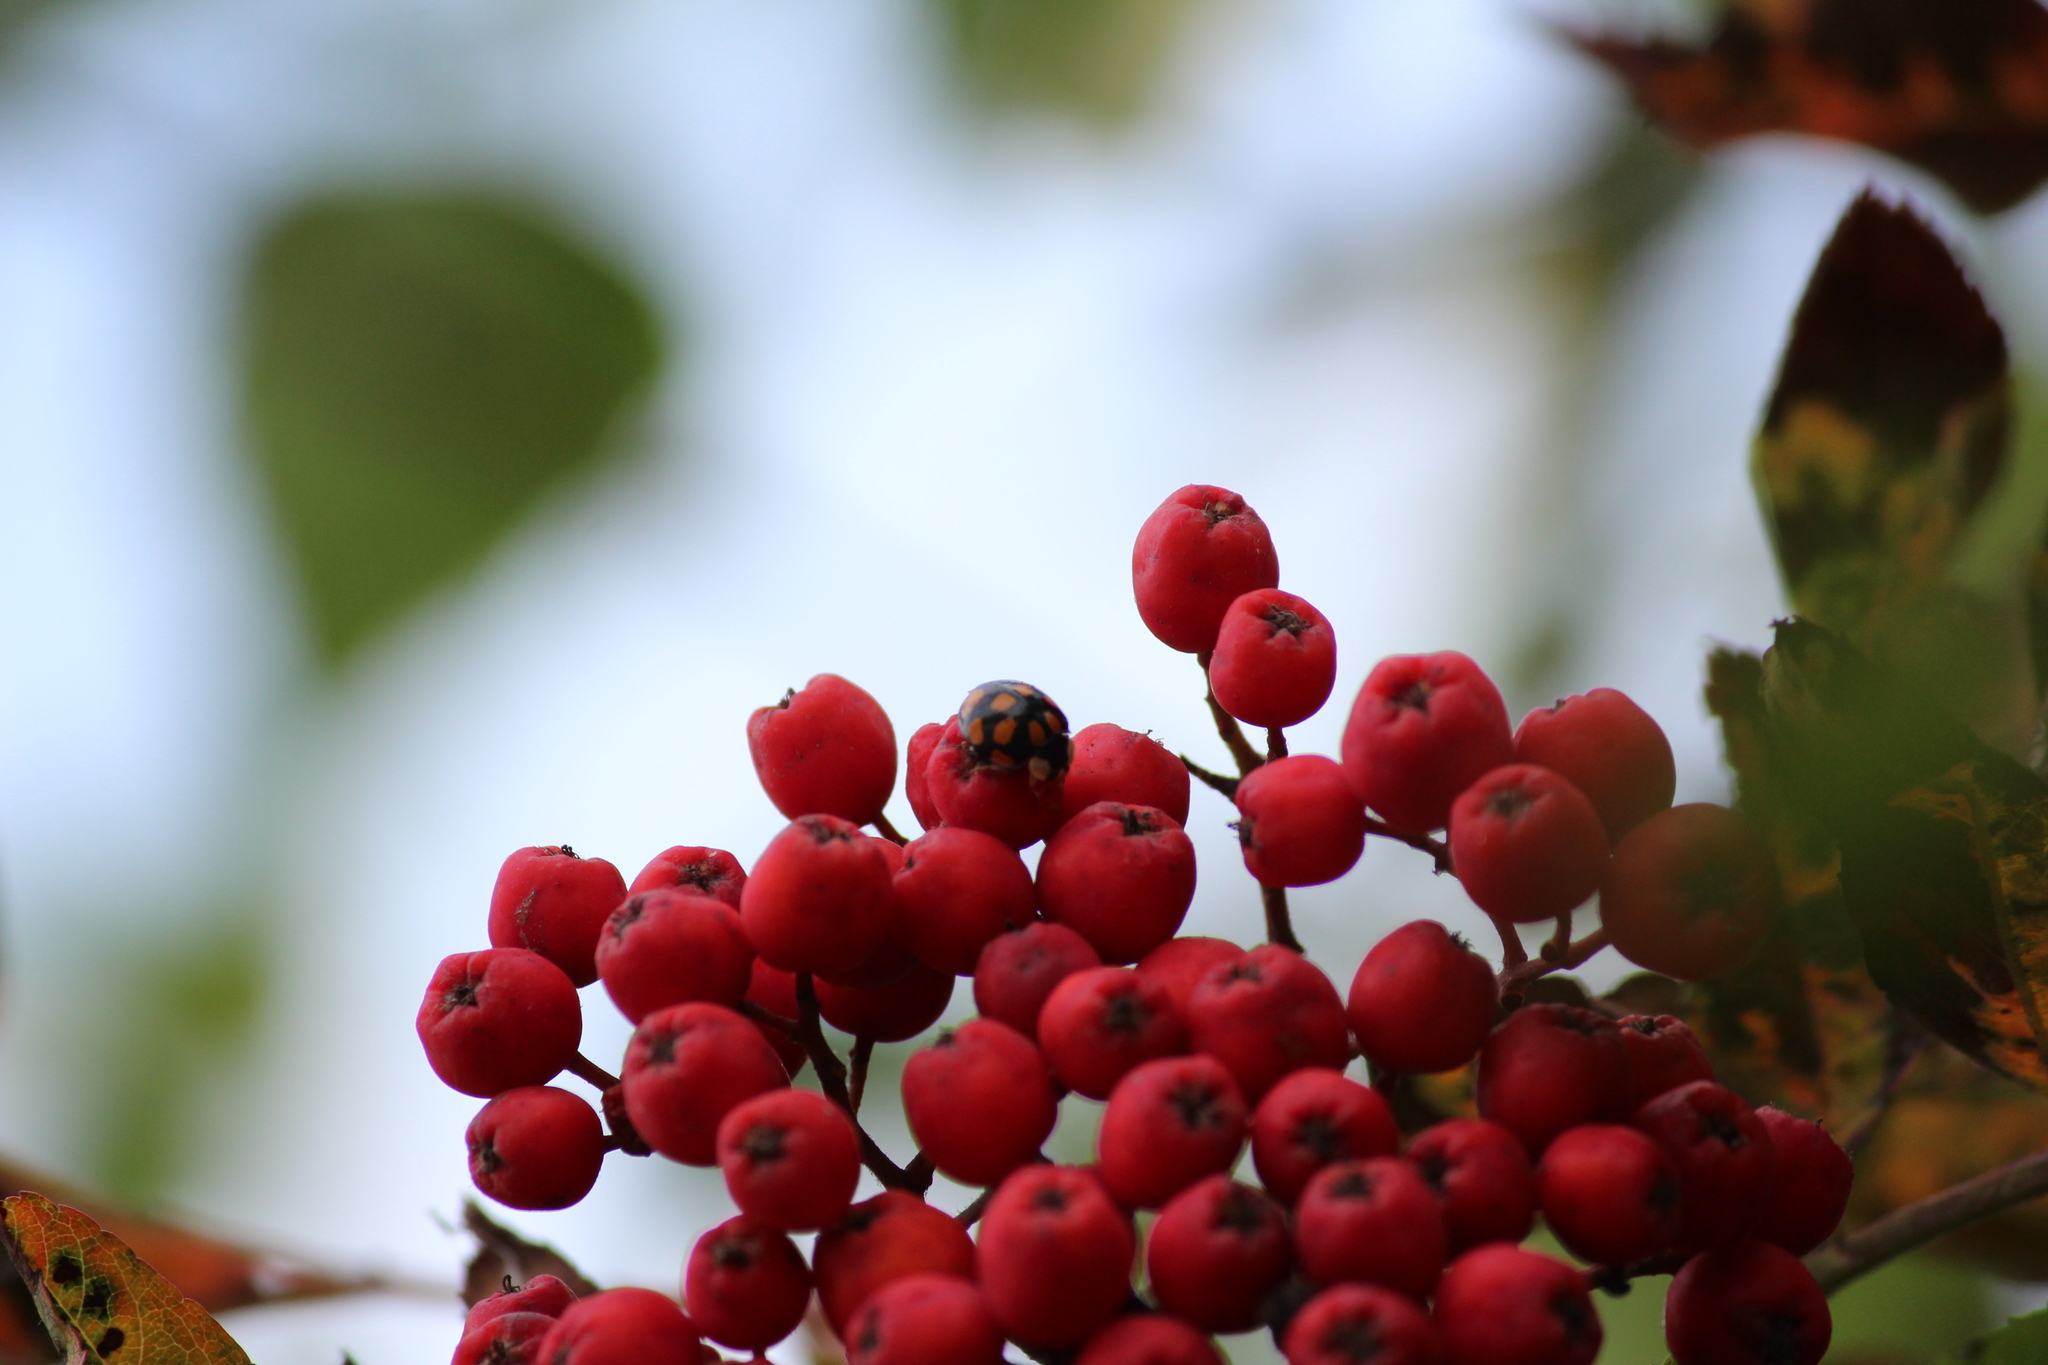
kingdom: Animalia
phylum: Arthropoda
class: Insecta
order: Coleoptera
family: Coccinellidae
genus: Harmonia
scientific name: Harmonia axyridis
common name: Harlequin ladybird
